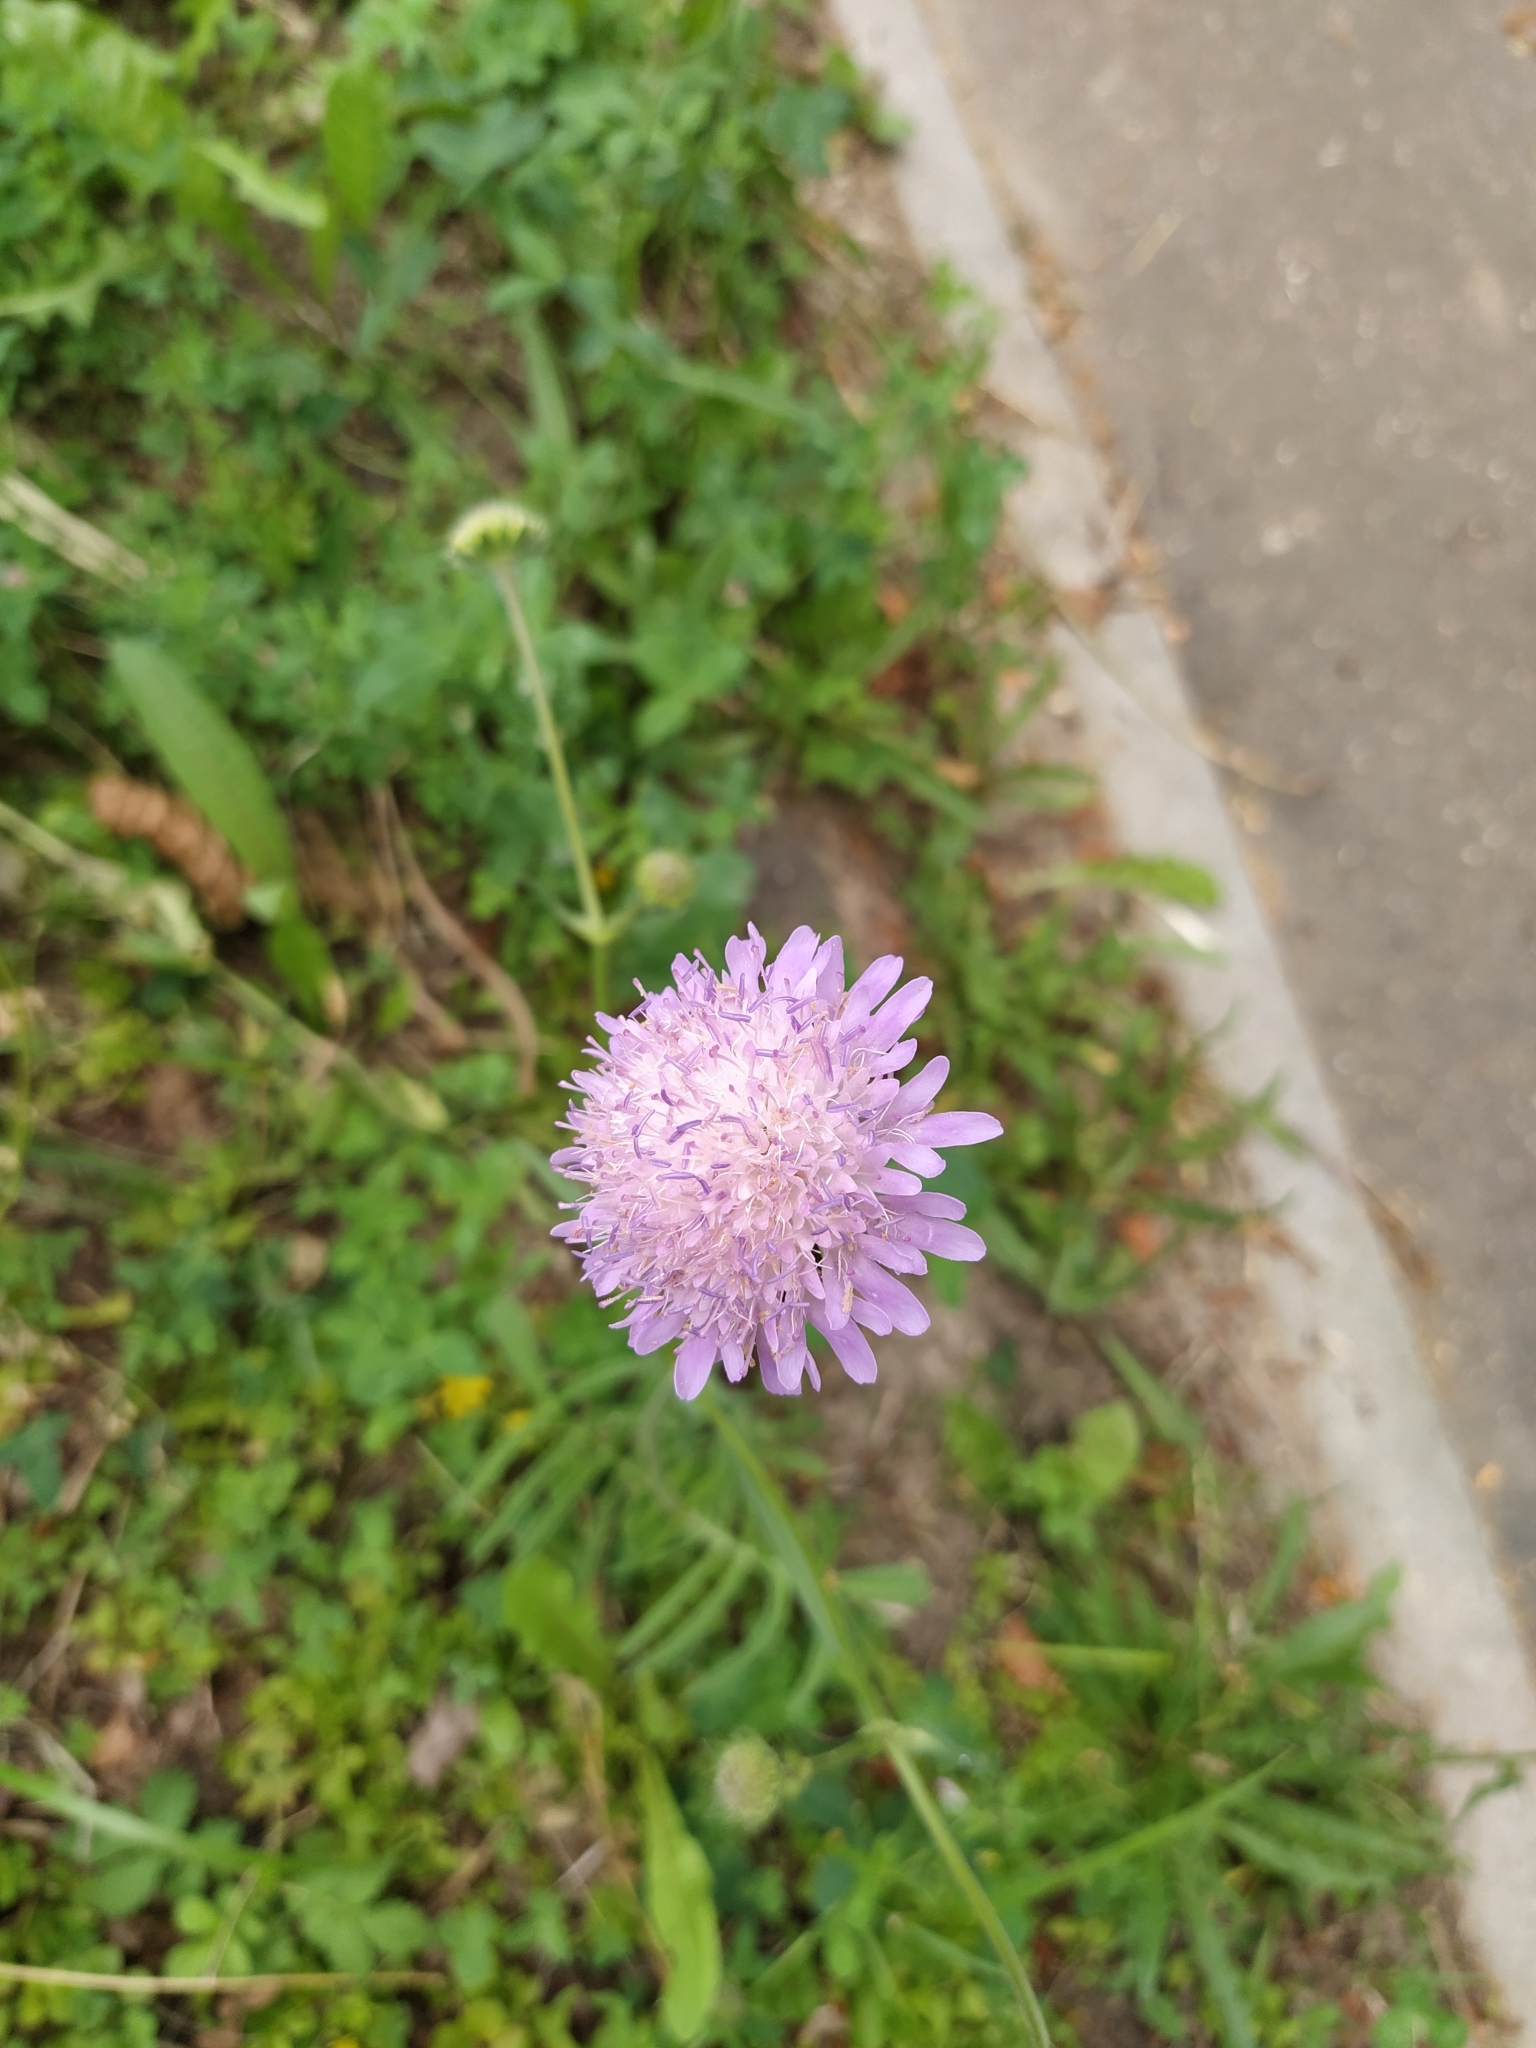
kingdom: Plantae
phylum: Tracheophyta
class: Magnoliopsida
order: Dipsacales
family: Caprifoliaceae
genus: Knautia
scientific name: Knautia arvensis
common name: Field scabiosa
